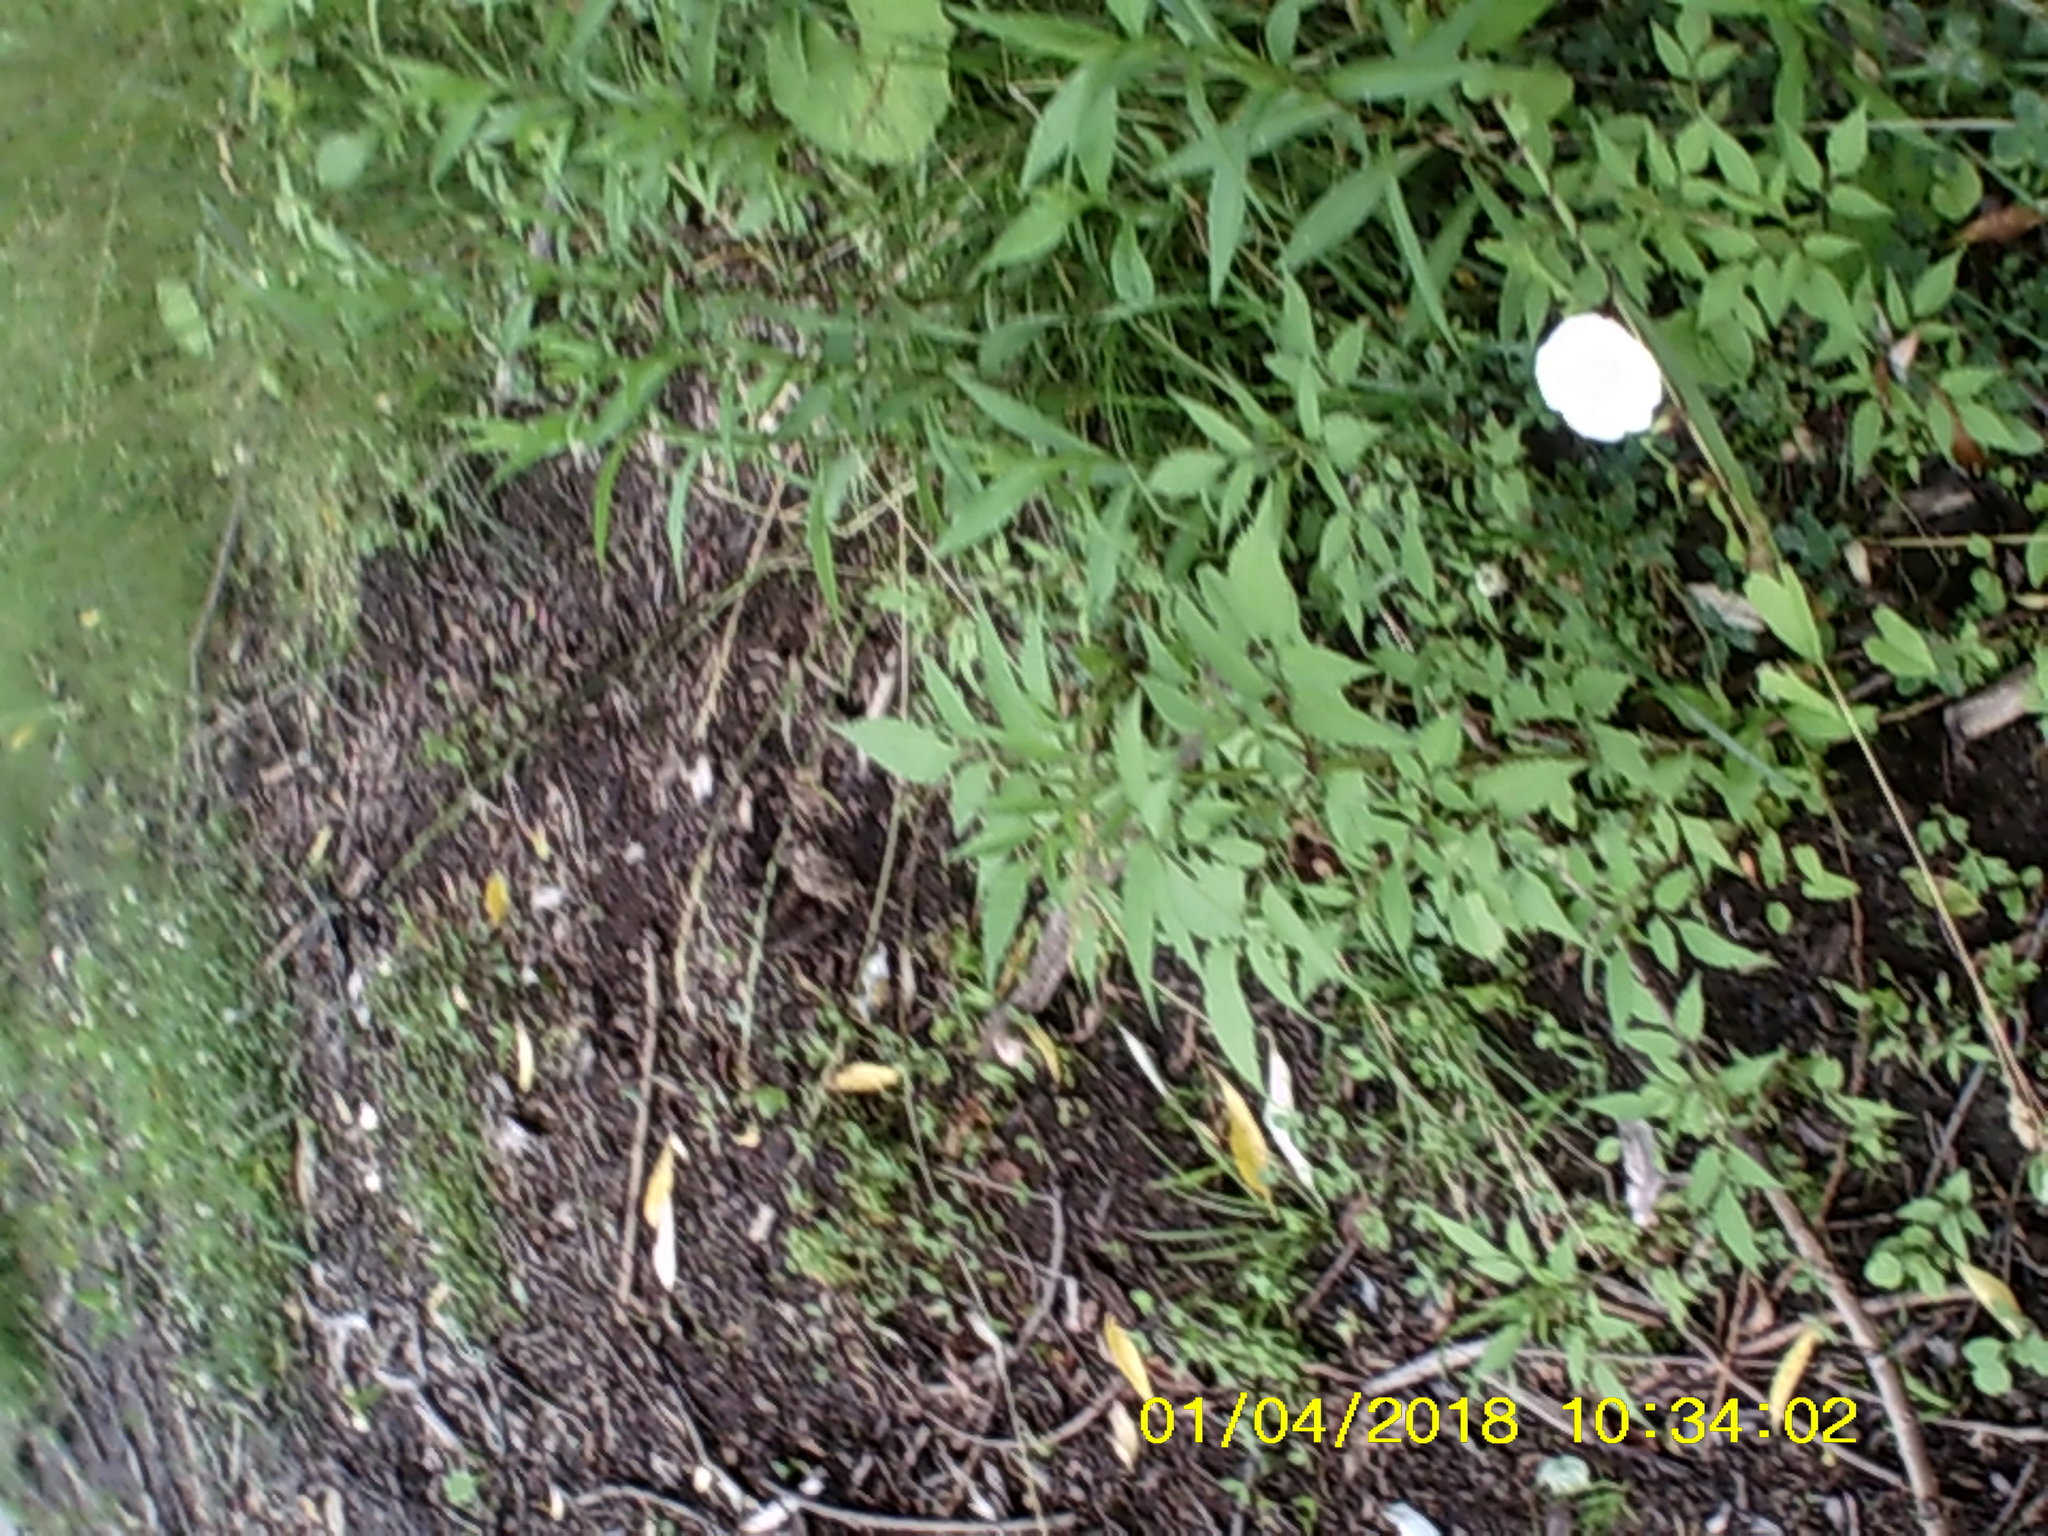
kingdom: Plantae
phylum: Tracheophyta
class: Magnoliopsida
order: Asterales
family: Asteraceae
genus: Bidens
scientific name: Bidens frondosa
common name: Beggarticks
